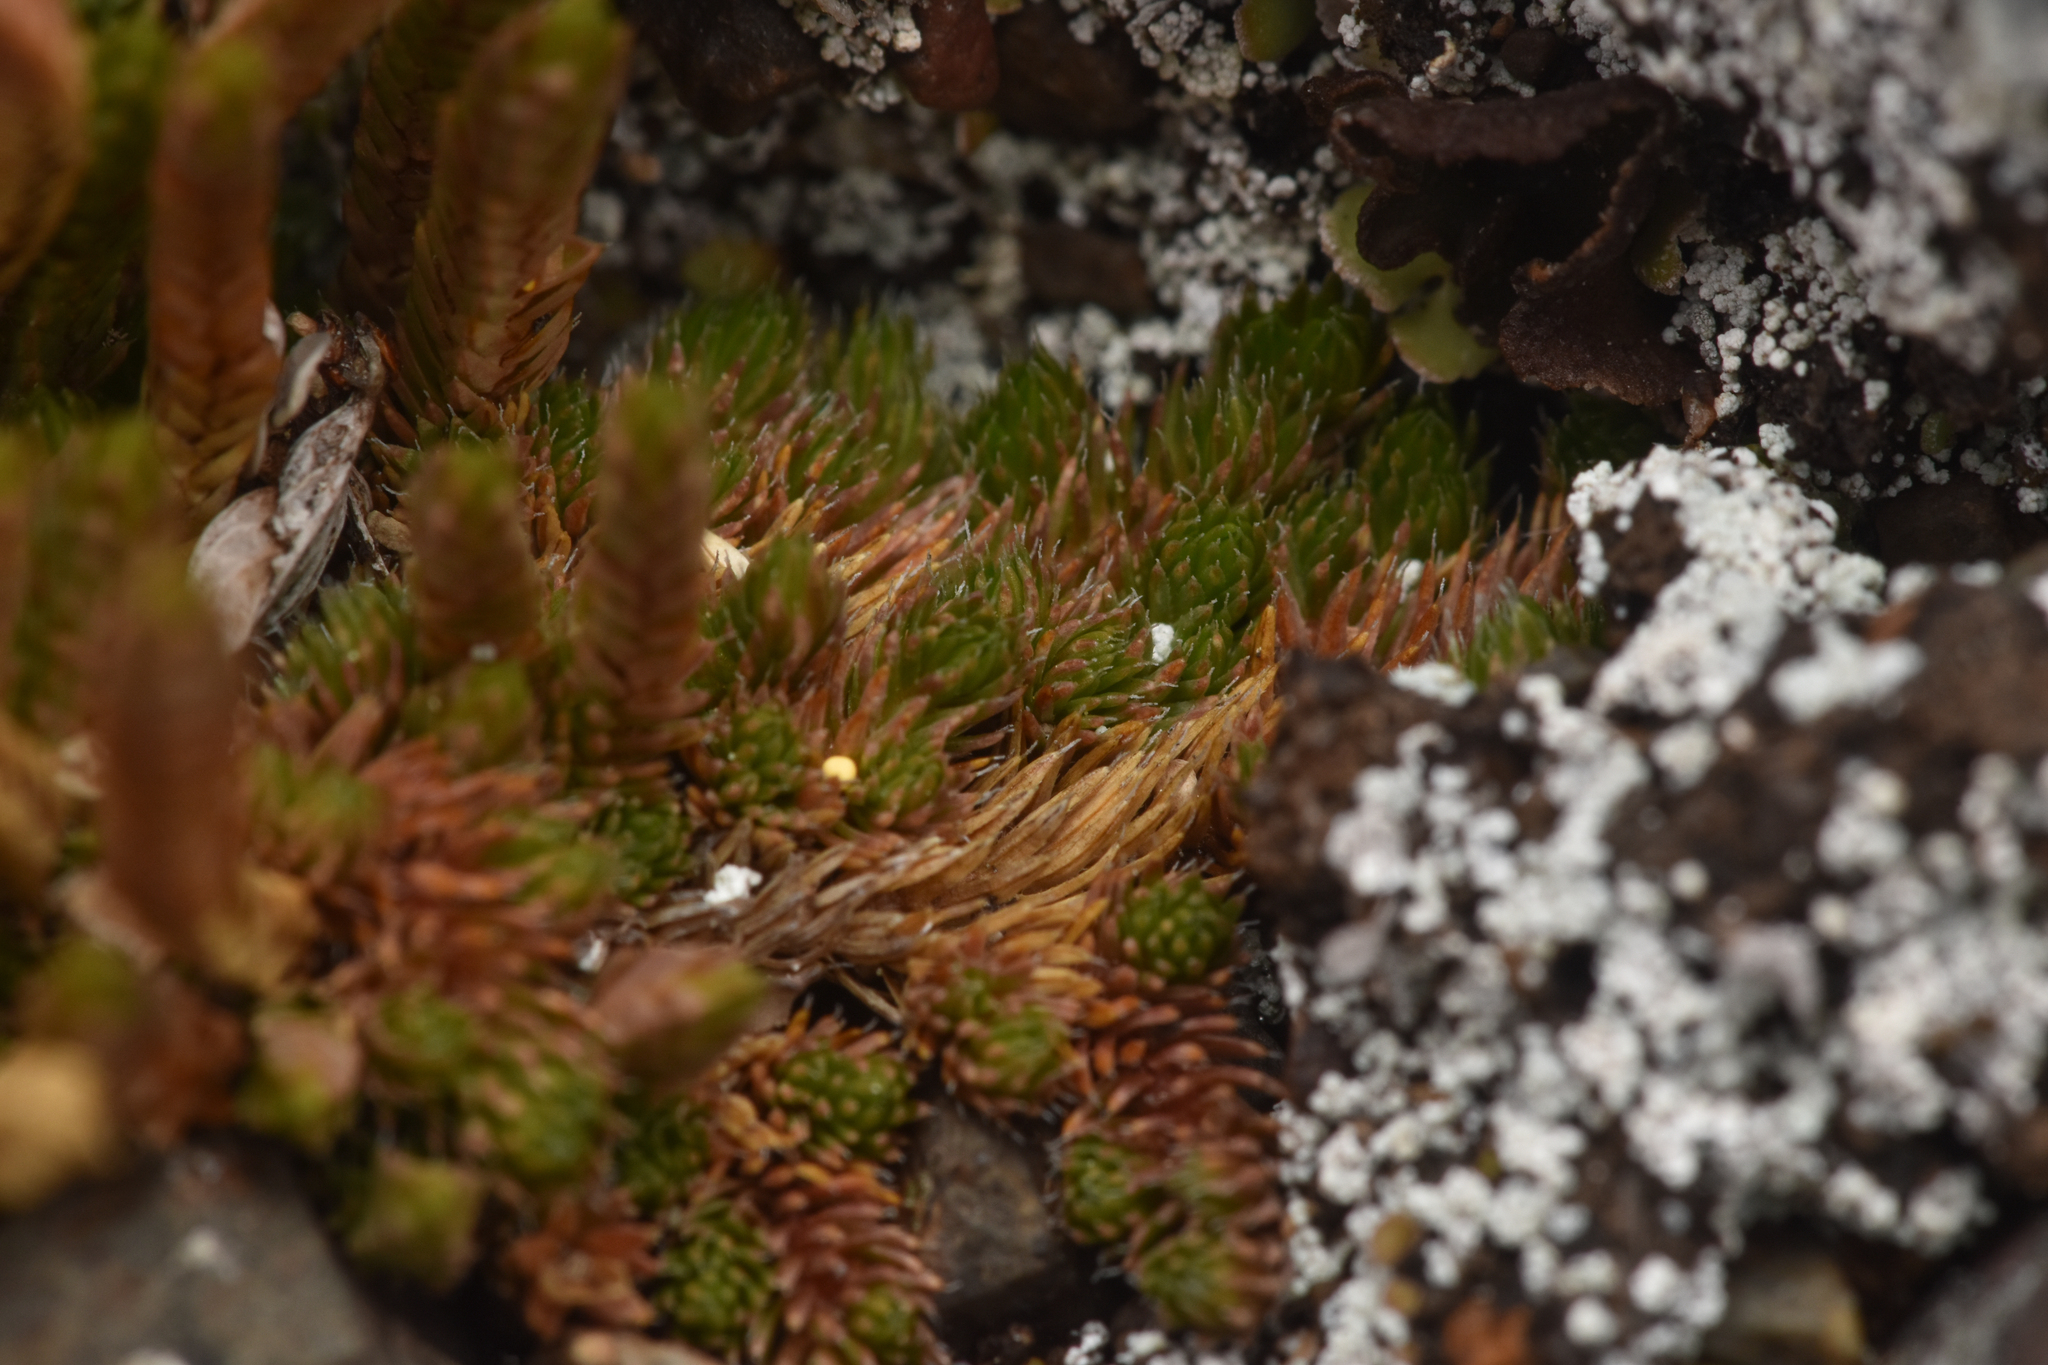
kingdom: Plantae
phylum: Tracheophyta
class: Lycopodiopsida
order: Selaginellales
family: Selaginellaceae
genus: Selaginella
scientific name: Selaginella densa
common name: Mountain spike-moss
